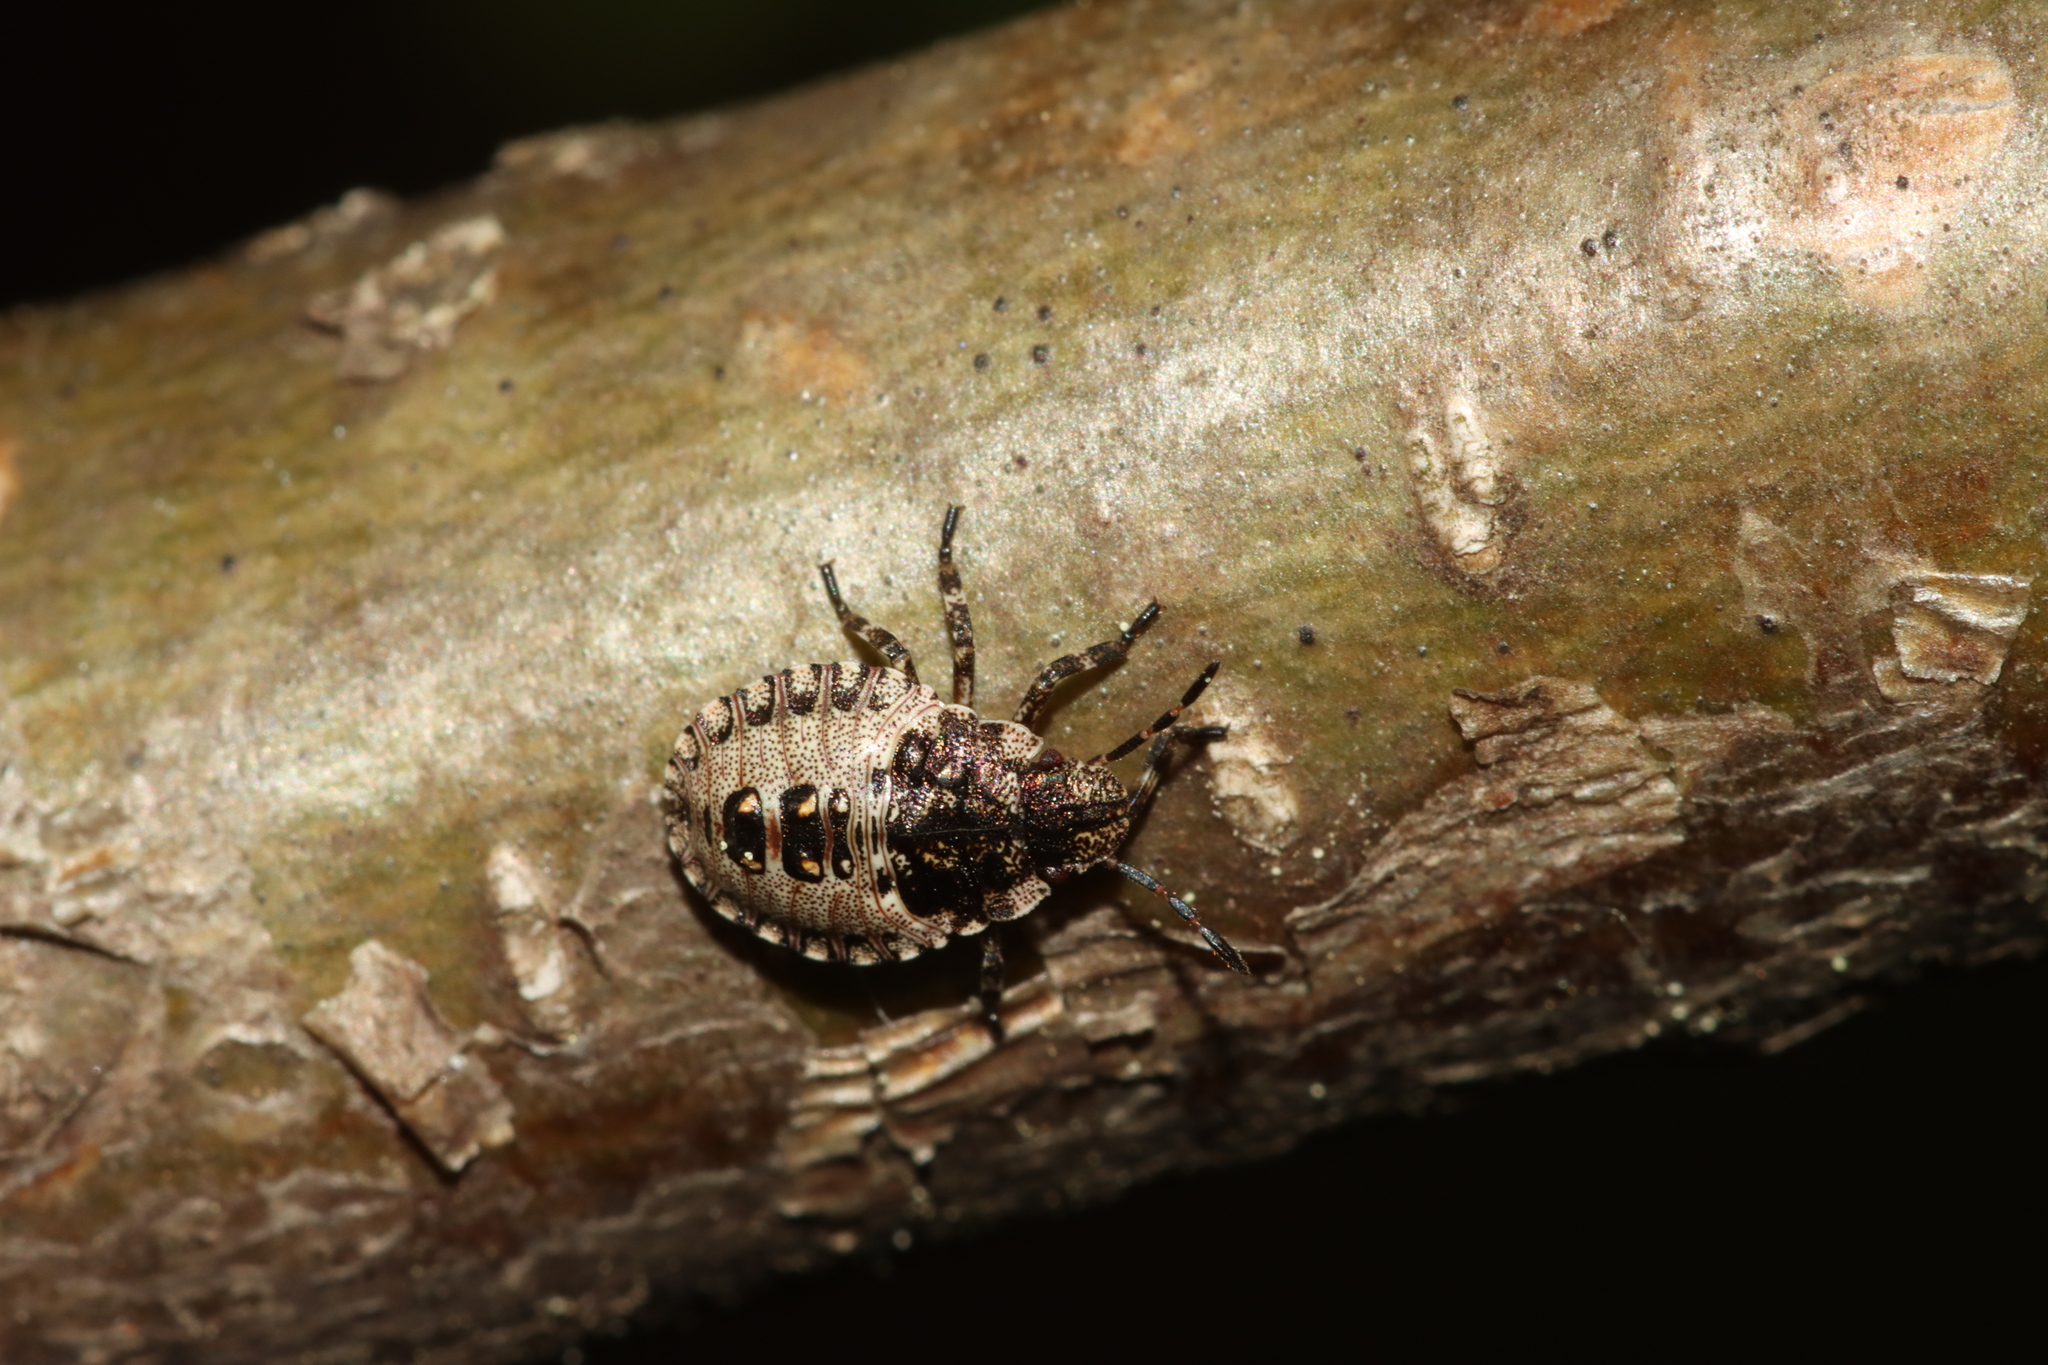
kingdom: Animalia
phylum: Arthropoda
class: Insecta
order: Hemiptera
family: Pentatomidae
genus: Pentatoma
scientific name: Pentatoma rufipes
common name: Forest bug
